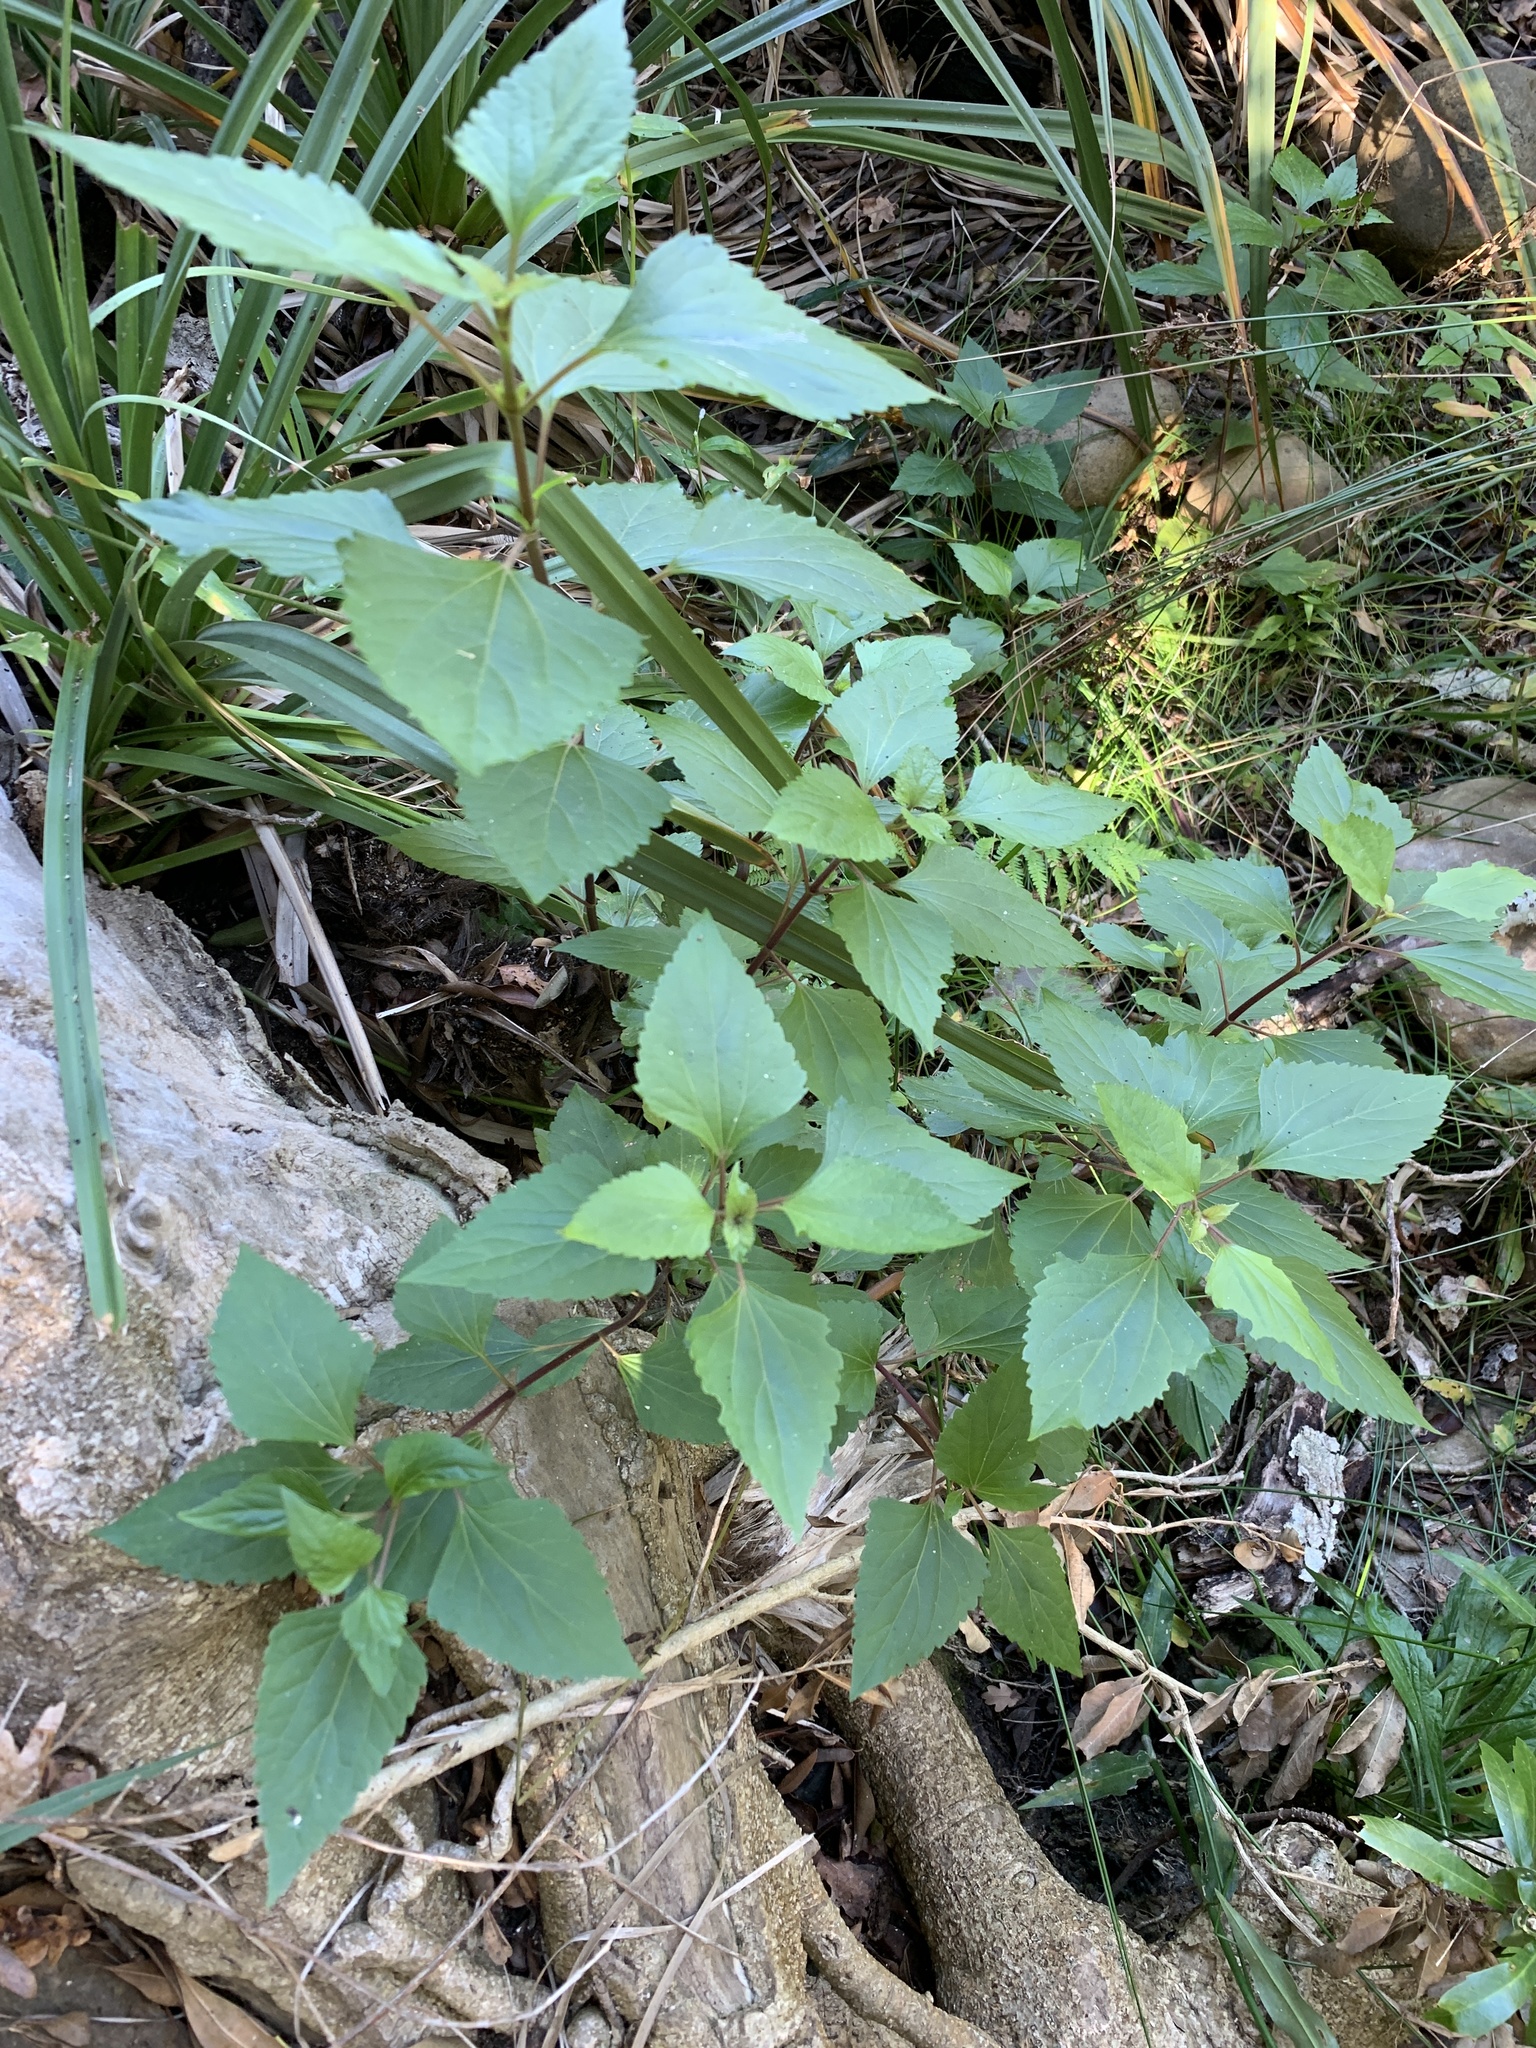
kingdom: Plantae
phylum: Tracheophyta
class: Magnoliopsida
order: Asterales
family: Asteraceae
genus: Ageratina
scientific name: Ageratina adenophora
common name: Sticky snakeroot
